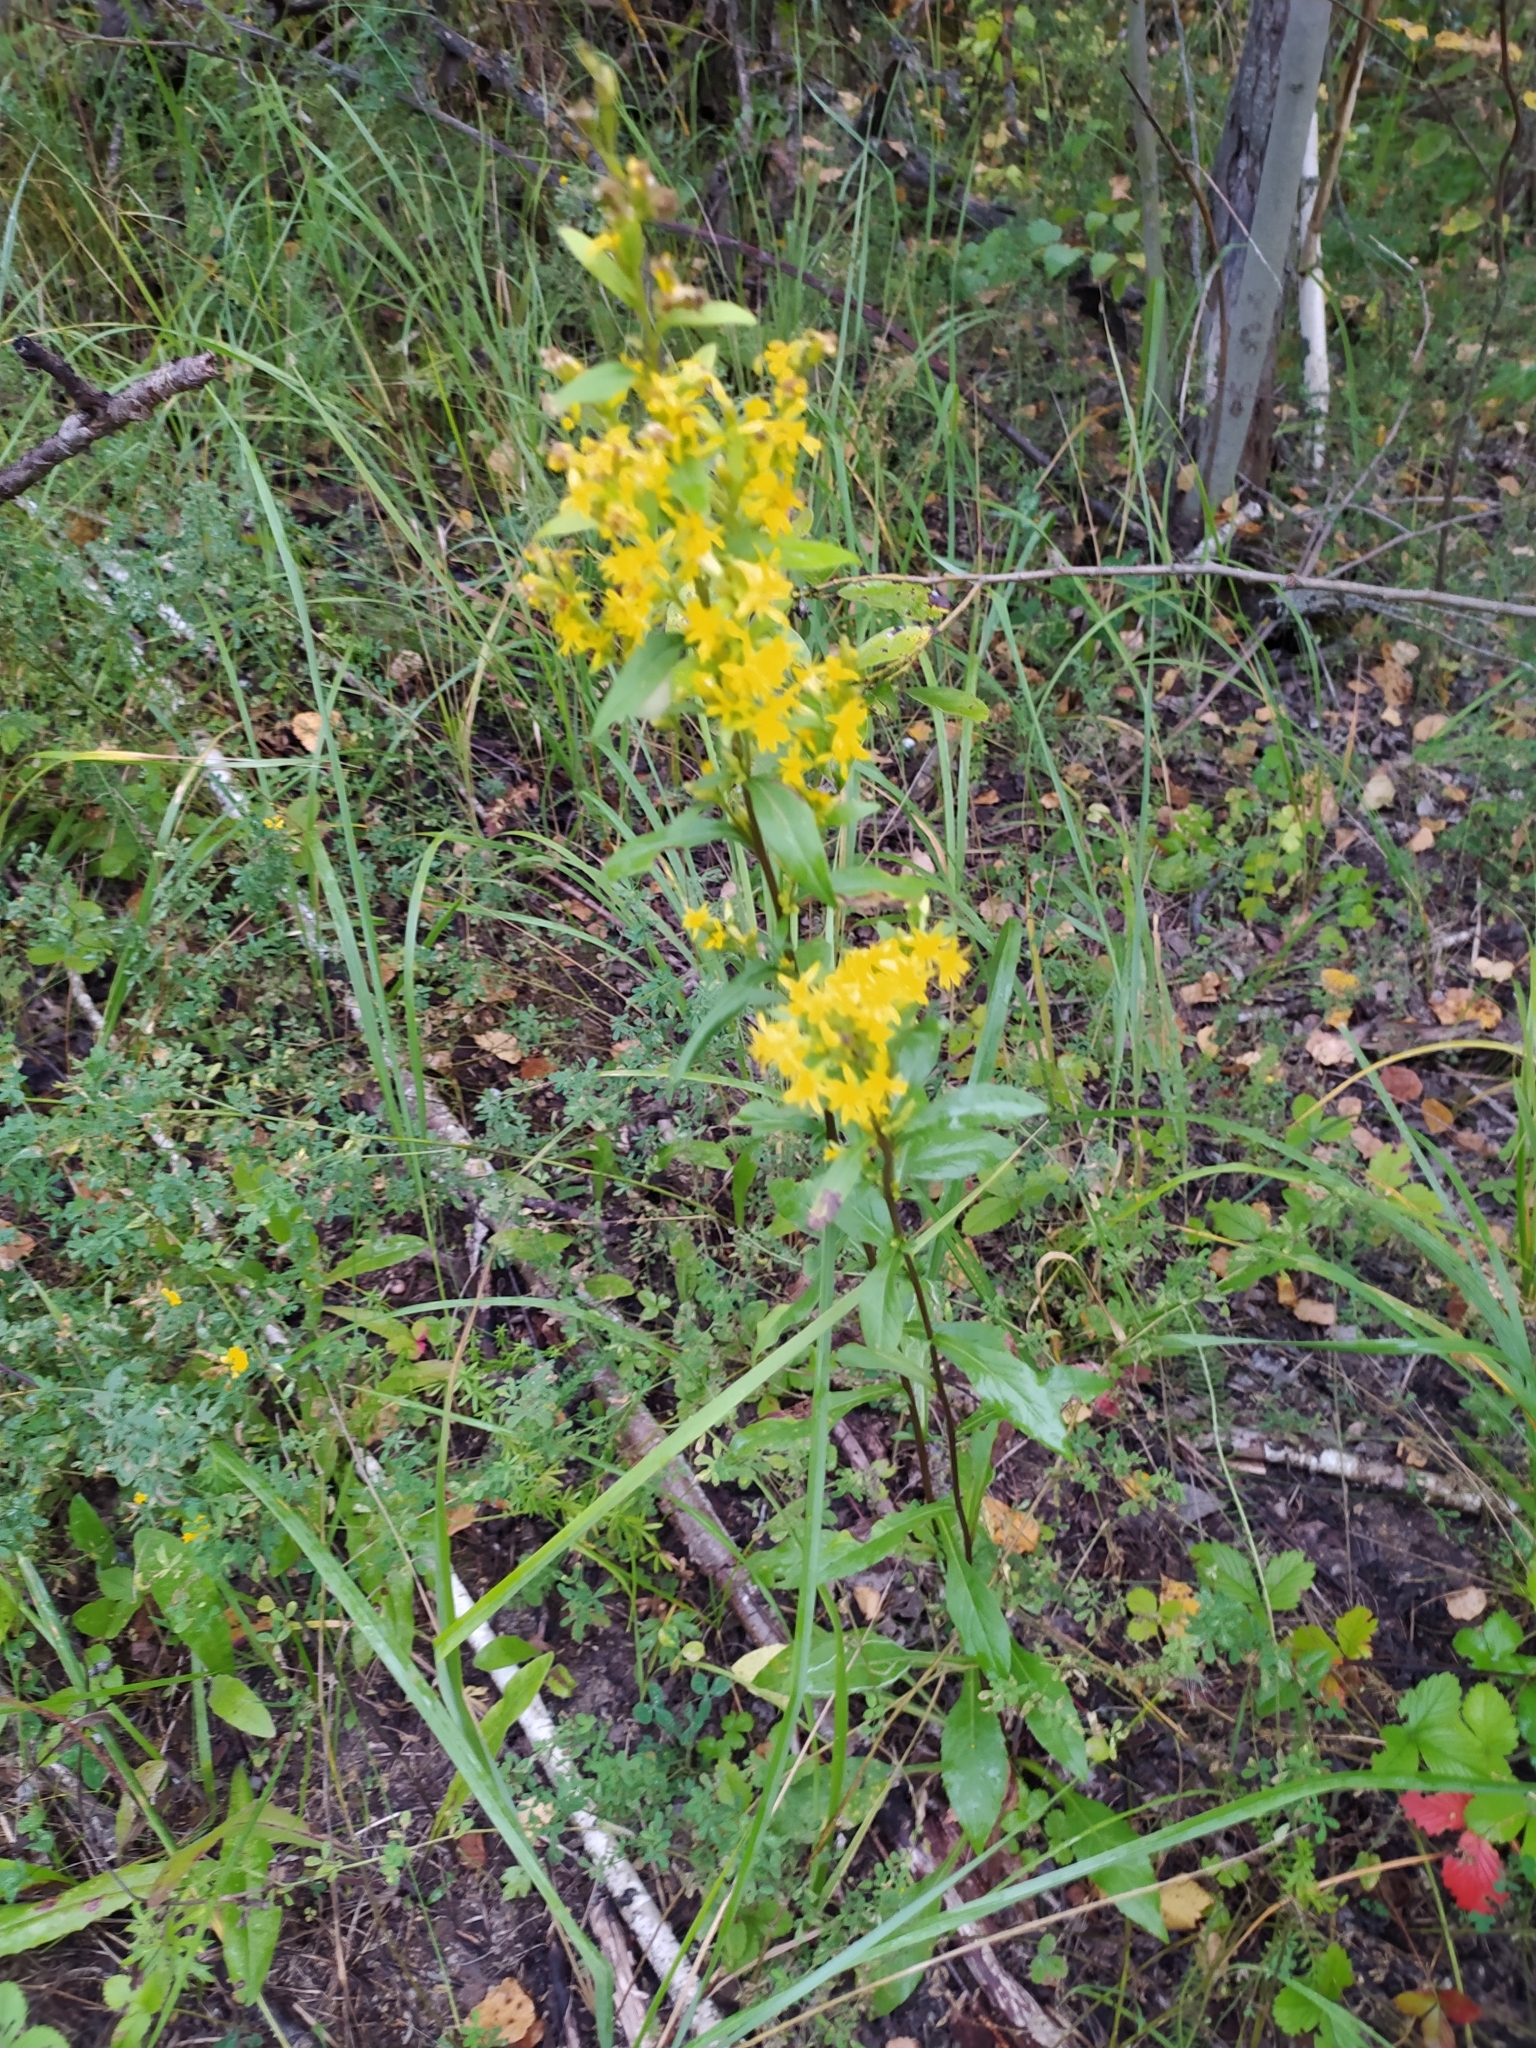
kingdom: Plantae
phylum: Tracheophyta
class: Magnoliopsida
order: Asterales
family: Asteraceae
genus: Solidago
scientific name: Solidago virgaurea
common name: Goldenrod
